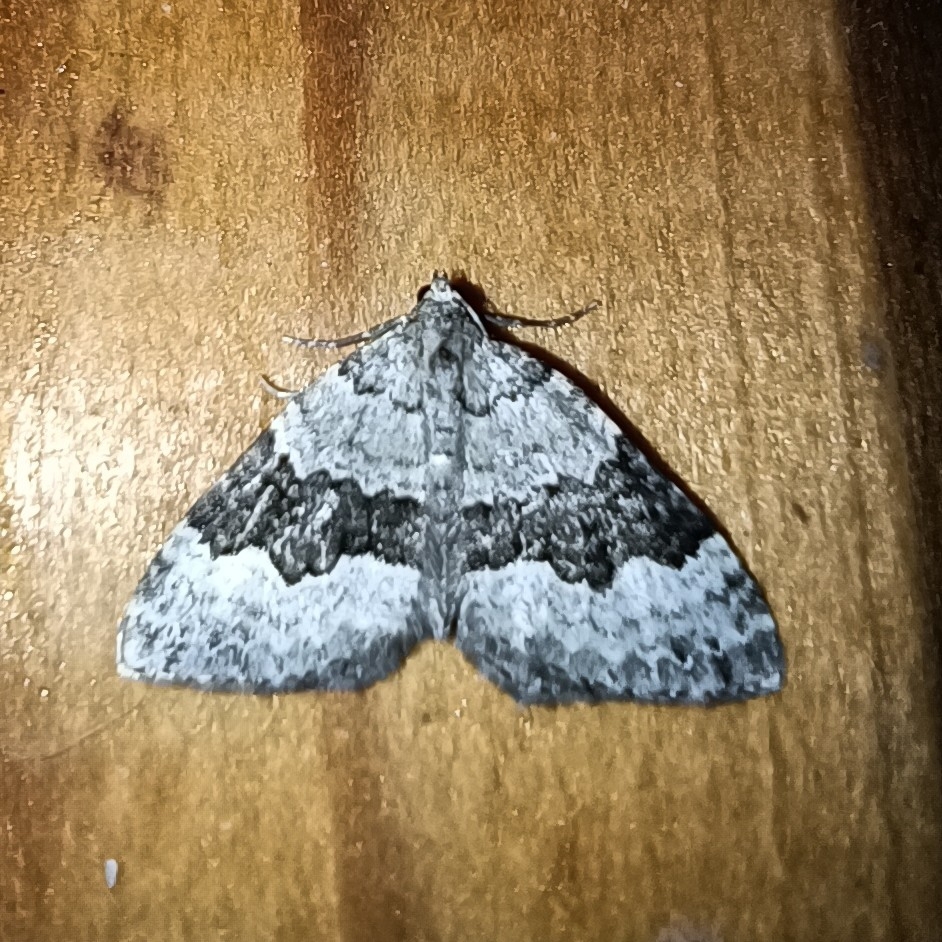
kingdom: Animalia
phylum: Arthropoda
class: Insecta
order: Lepidoptera
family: Geometridae
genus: Colostygia
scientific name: Colostygia aptata
